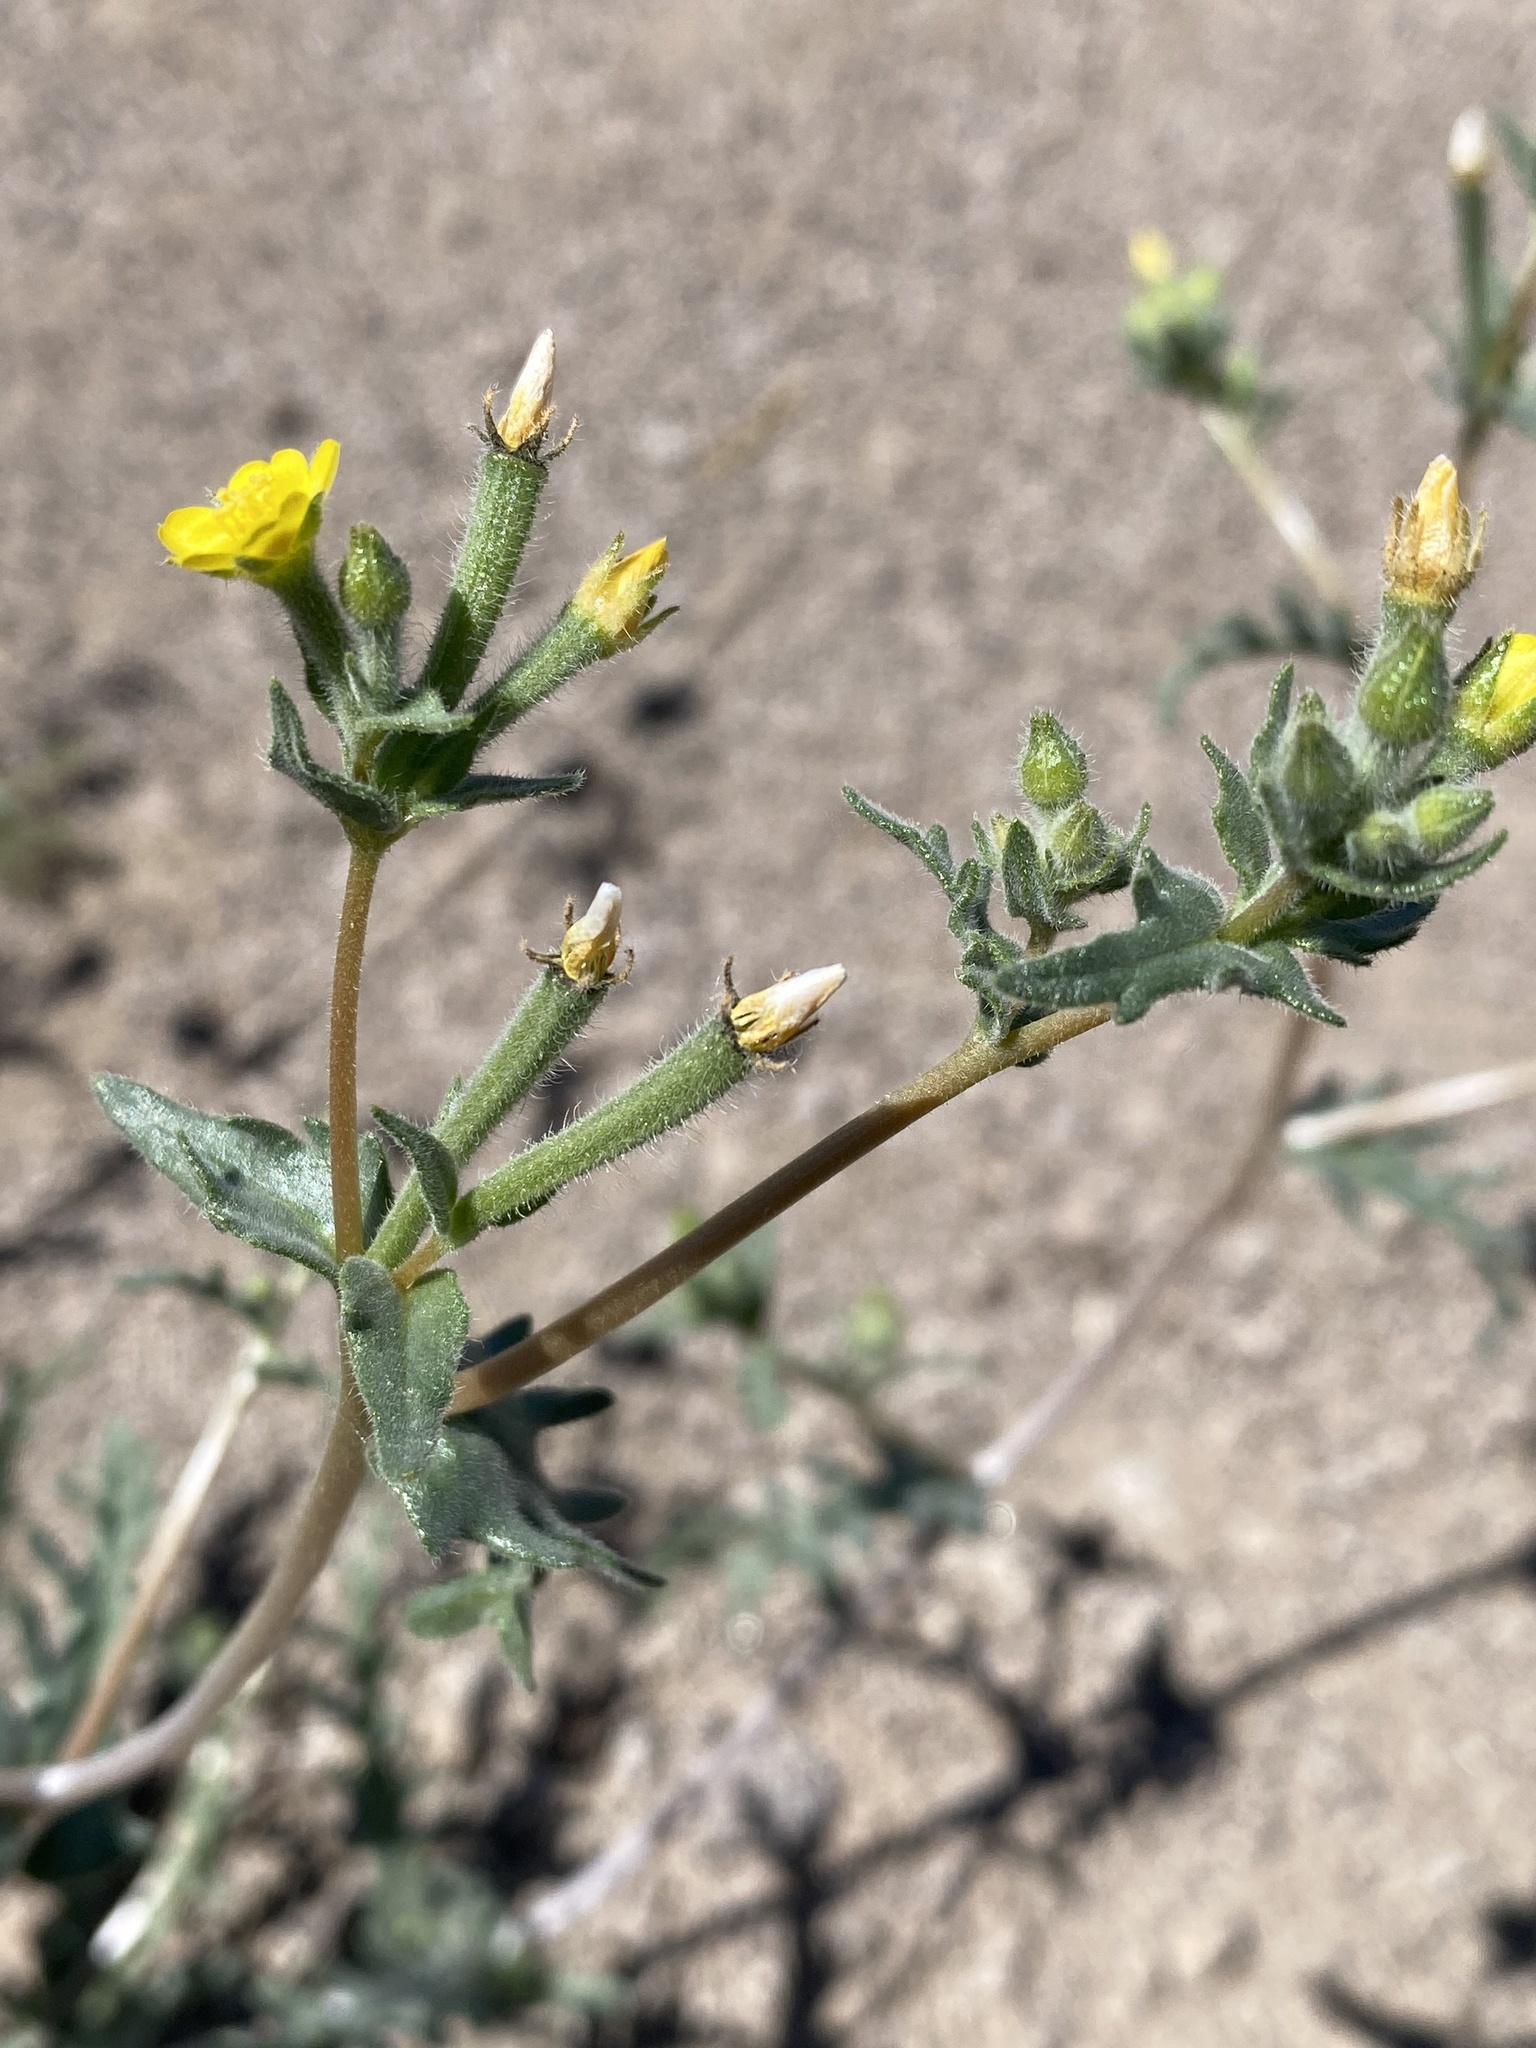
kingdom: Plantae
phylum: Tracheophyta
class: Magnoliopsida
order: Cornales
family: Loasaceae
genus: Mentzelia
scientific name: Mentzelia albicaulis
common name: White-stem blazingstar
